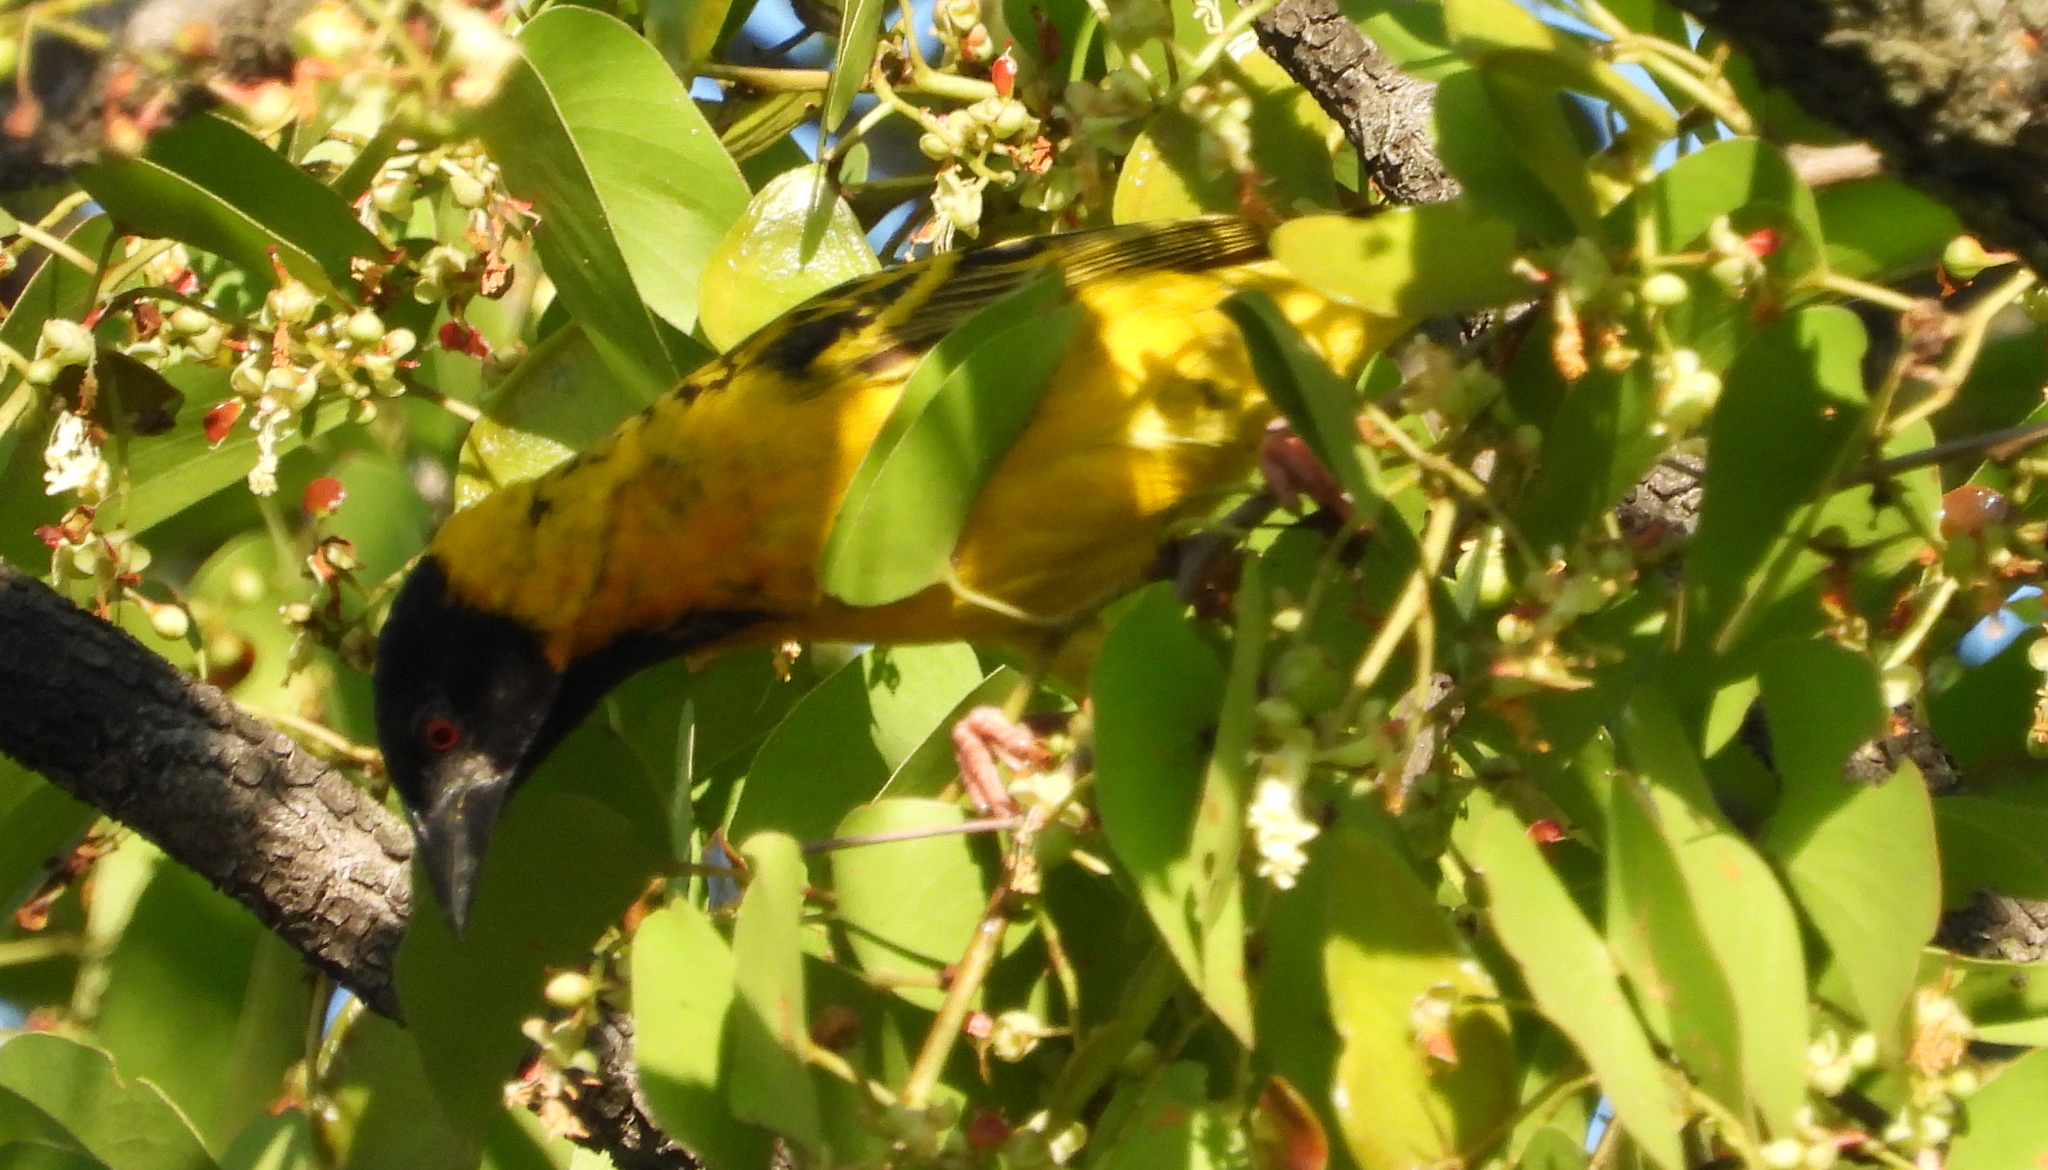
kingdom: Animalia
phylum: Chordata
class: Aves
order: Passeriformes
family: Ploceidae
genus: Ploceus
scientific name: Ploceus cucullatus
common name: Village weaver
